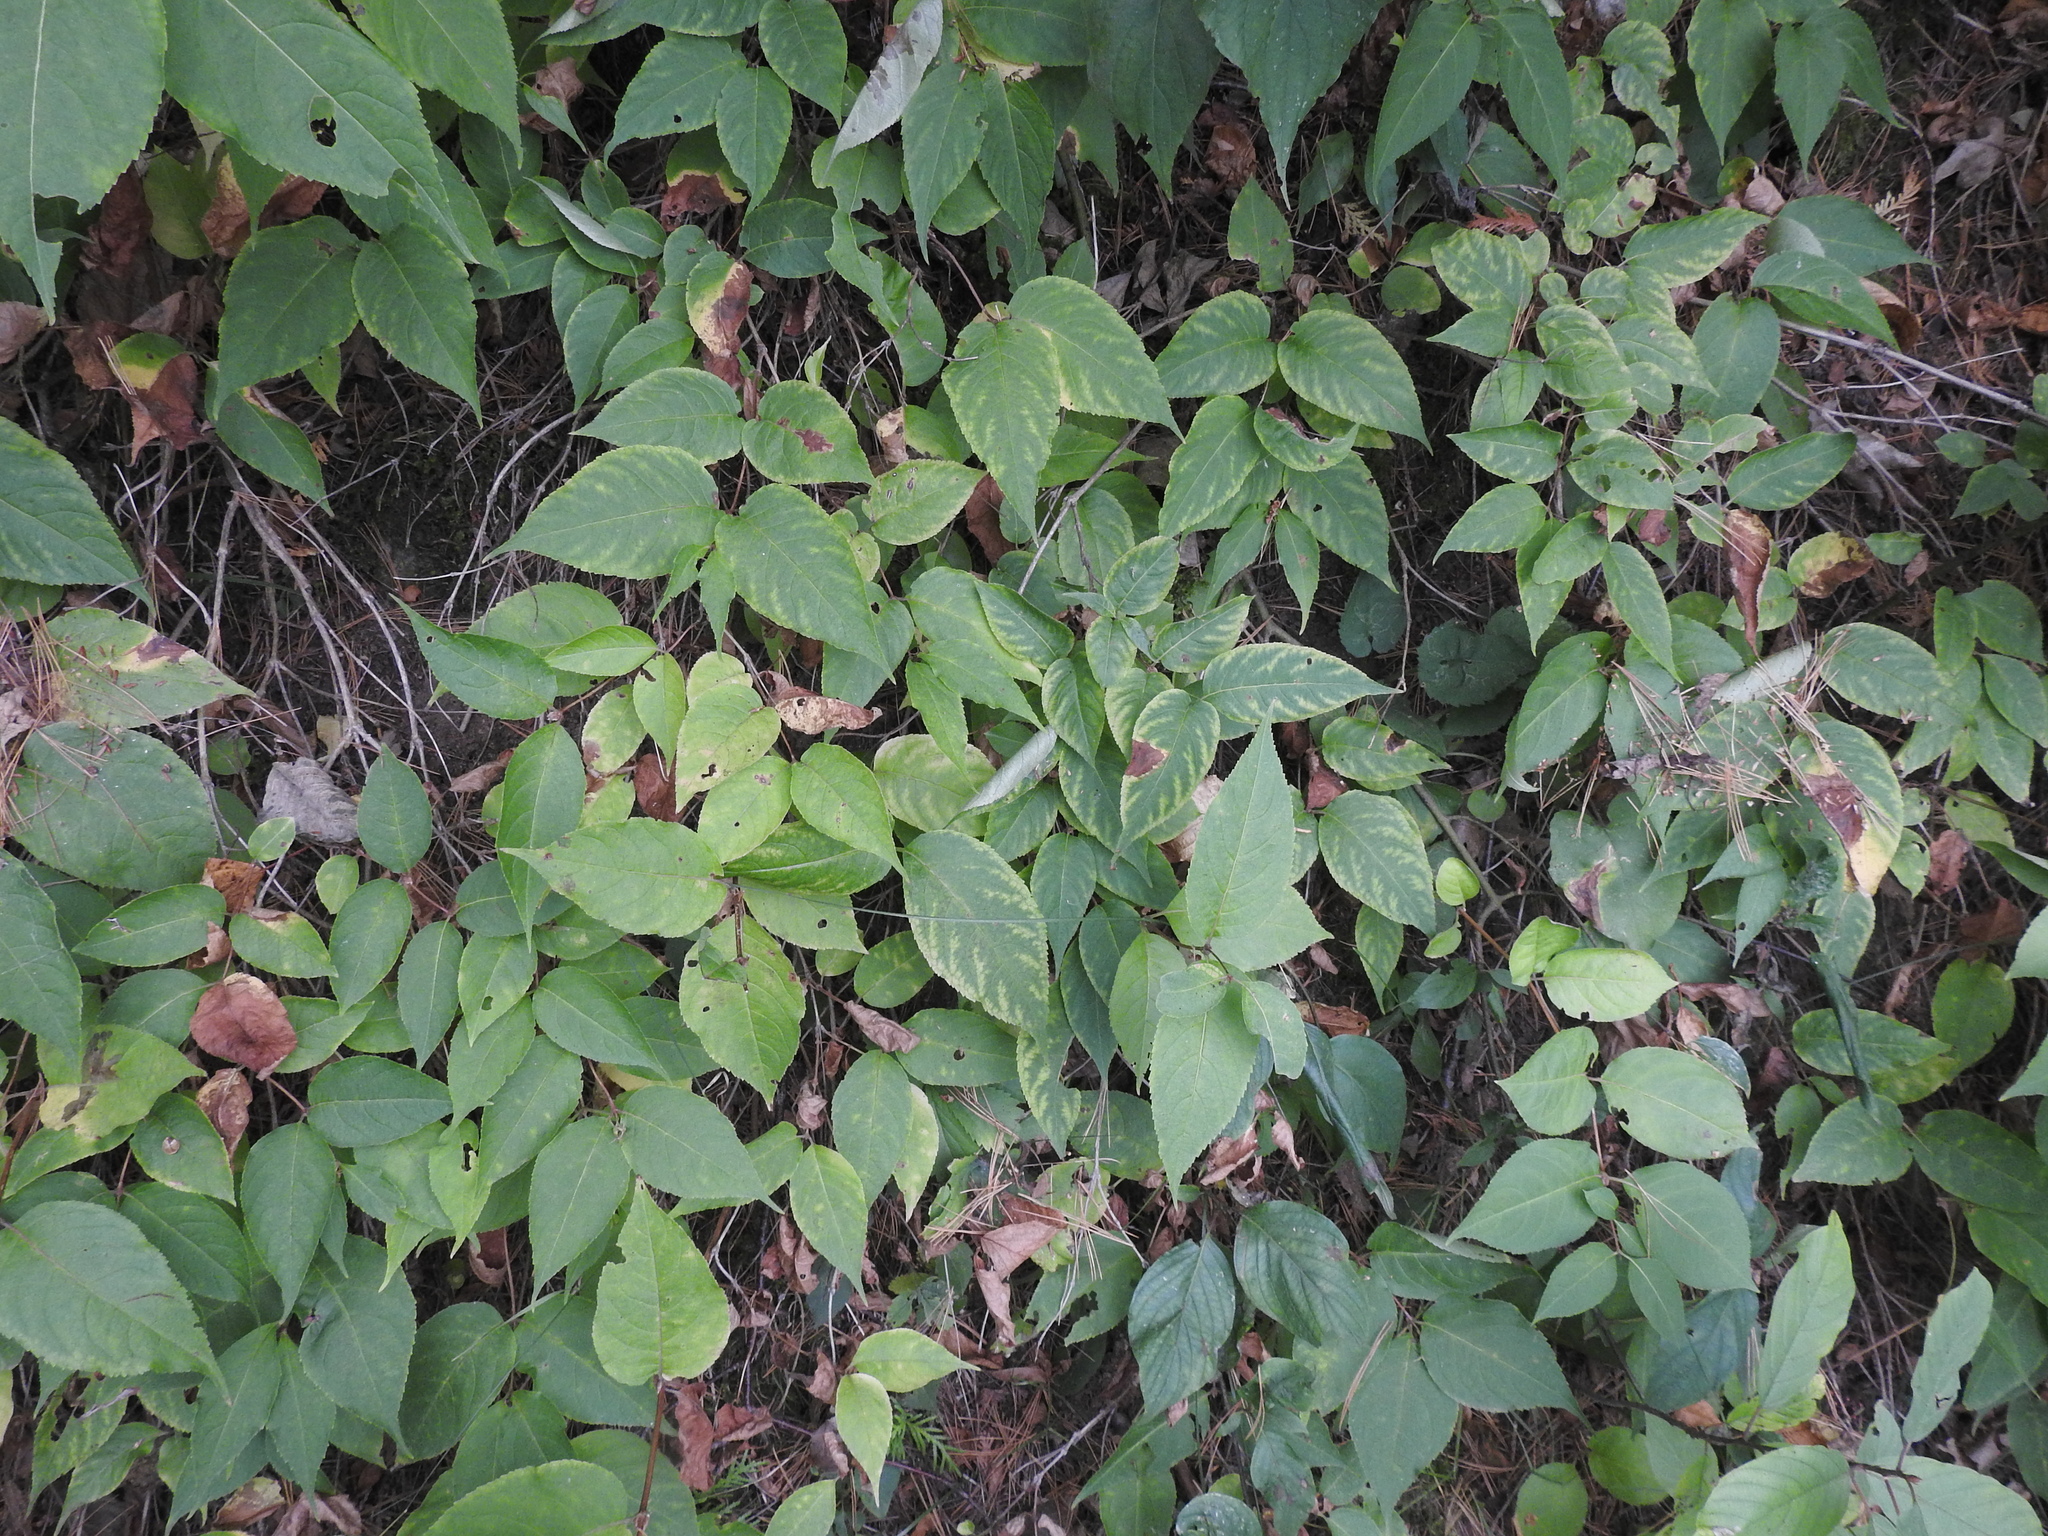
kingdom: Plantae
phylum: Tracheophyta
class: Magnoliopsida
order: Dipsacales
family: Caprifoliaceae
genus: Diervilla
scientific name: Diervilla lonicera
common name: Bush-honeysuckle
